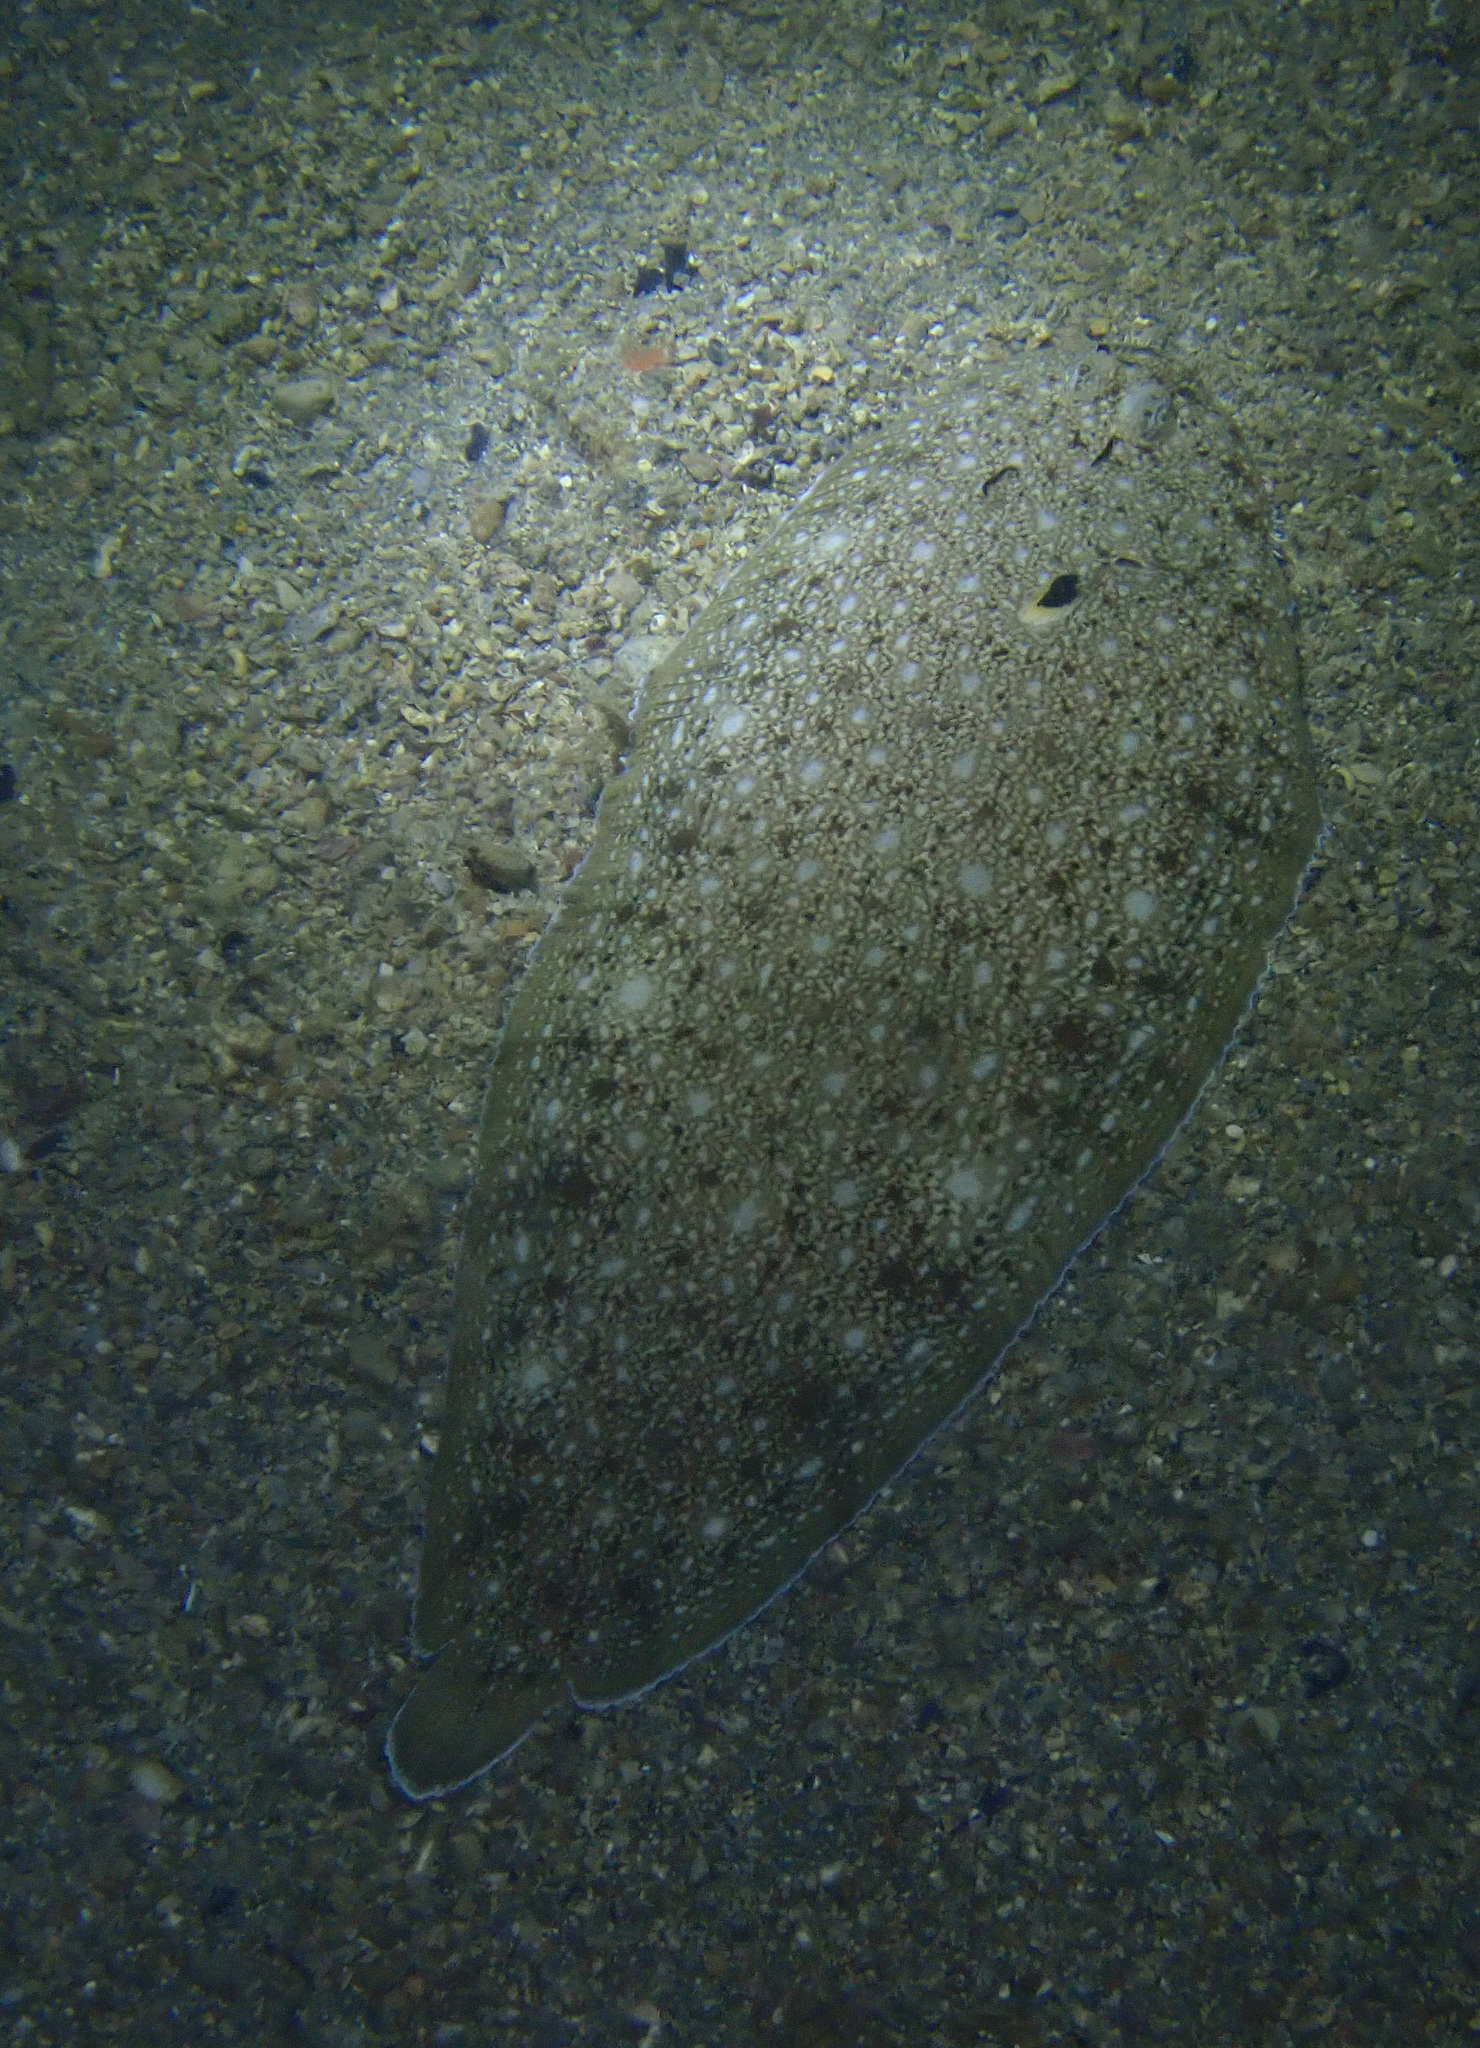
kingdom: Animalia
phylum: Chordata
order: Pleuronectiformes
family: Soleidae
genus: Synapturichthys
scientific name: Synapturichthys kleinii
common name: Klein's sole
